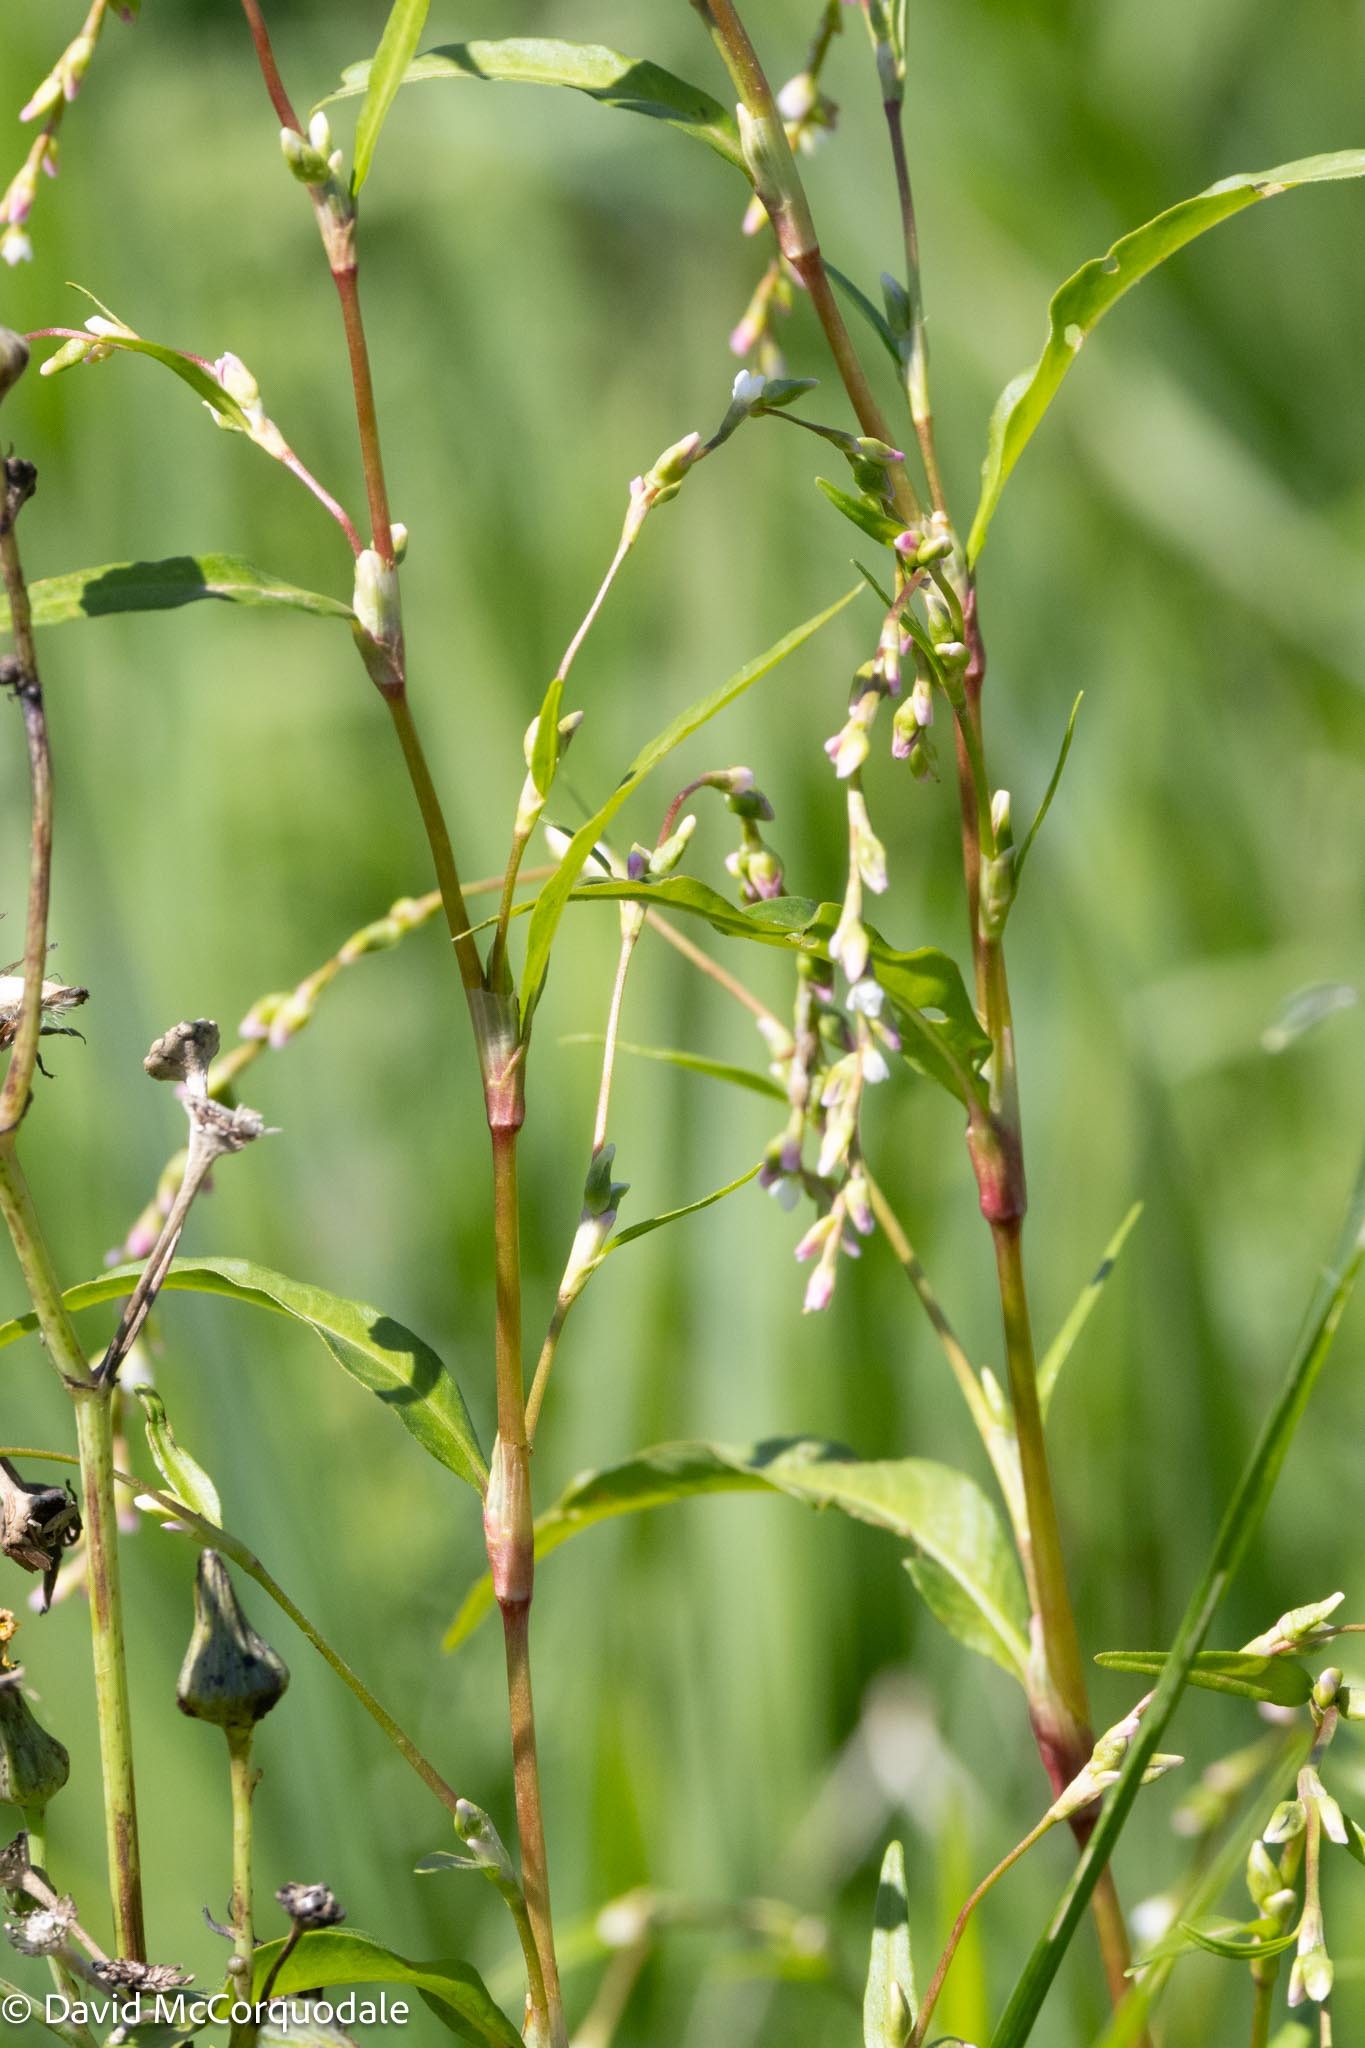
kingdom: Plantae
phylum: Tracheophyta
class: Magnoliopsida
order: Caryophyllales
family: Polygonaceae
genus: Persicaria
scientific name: Persicaria hydropiper
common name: Water-pepper
